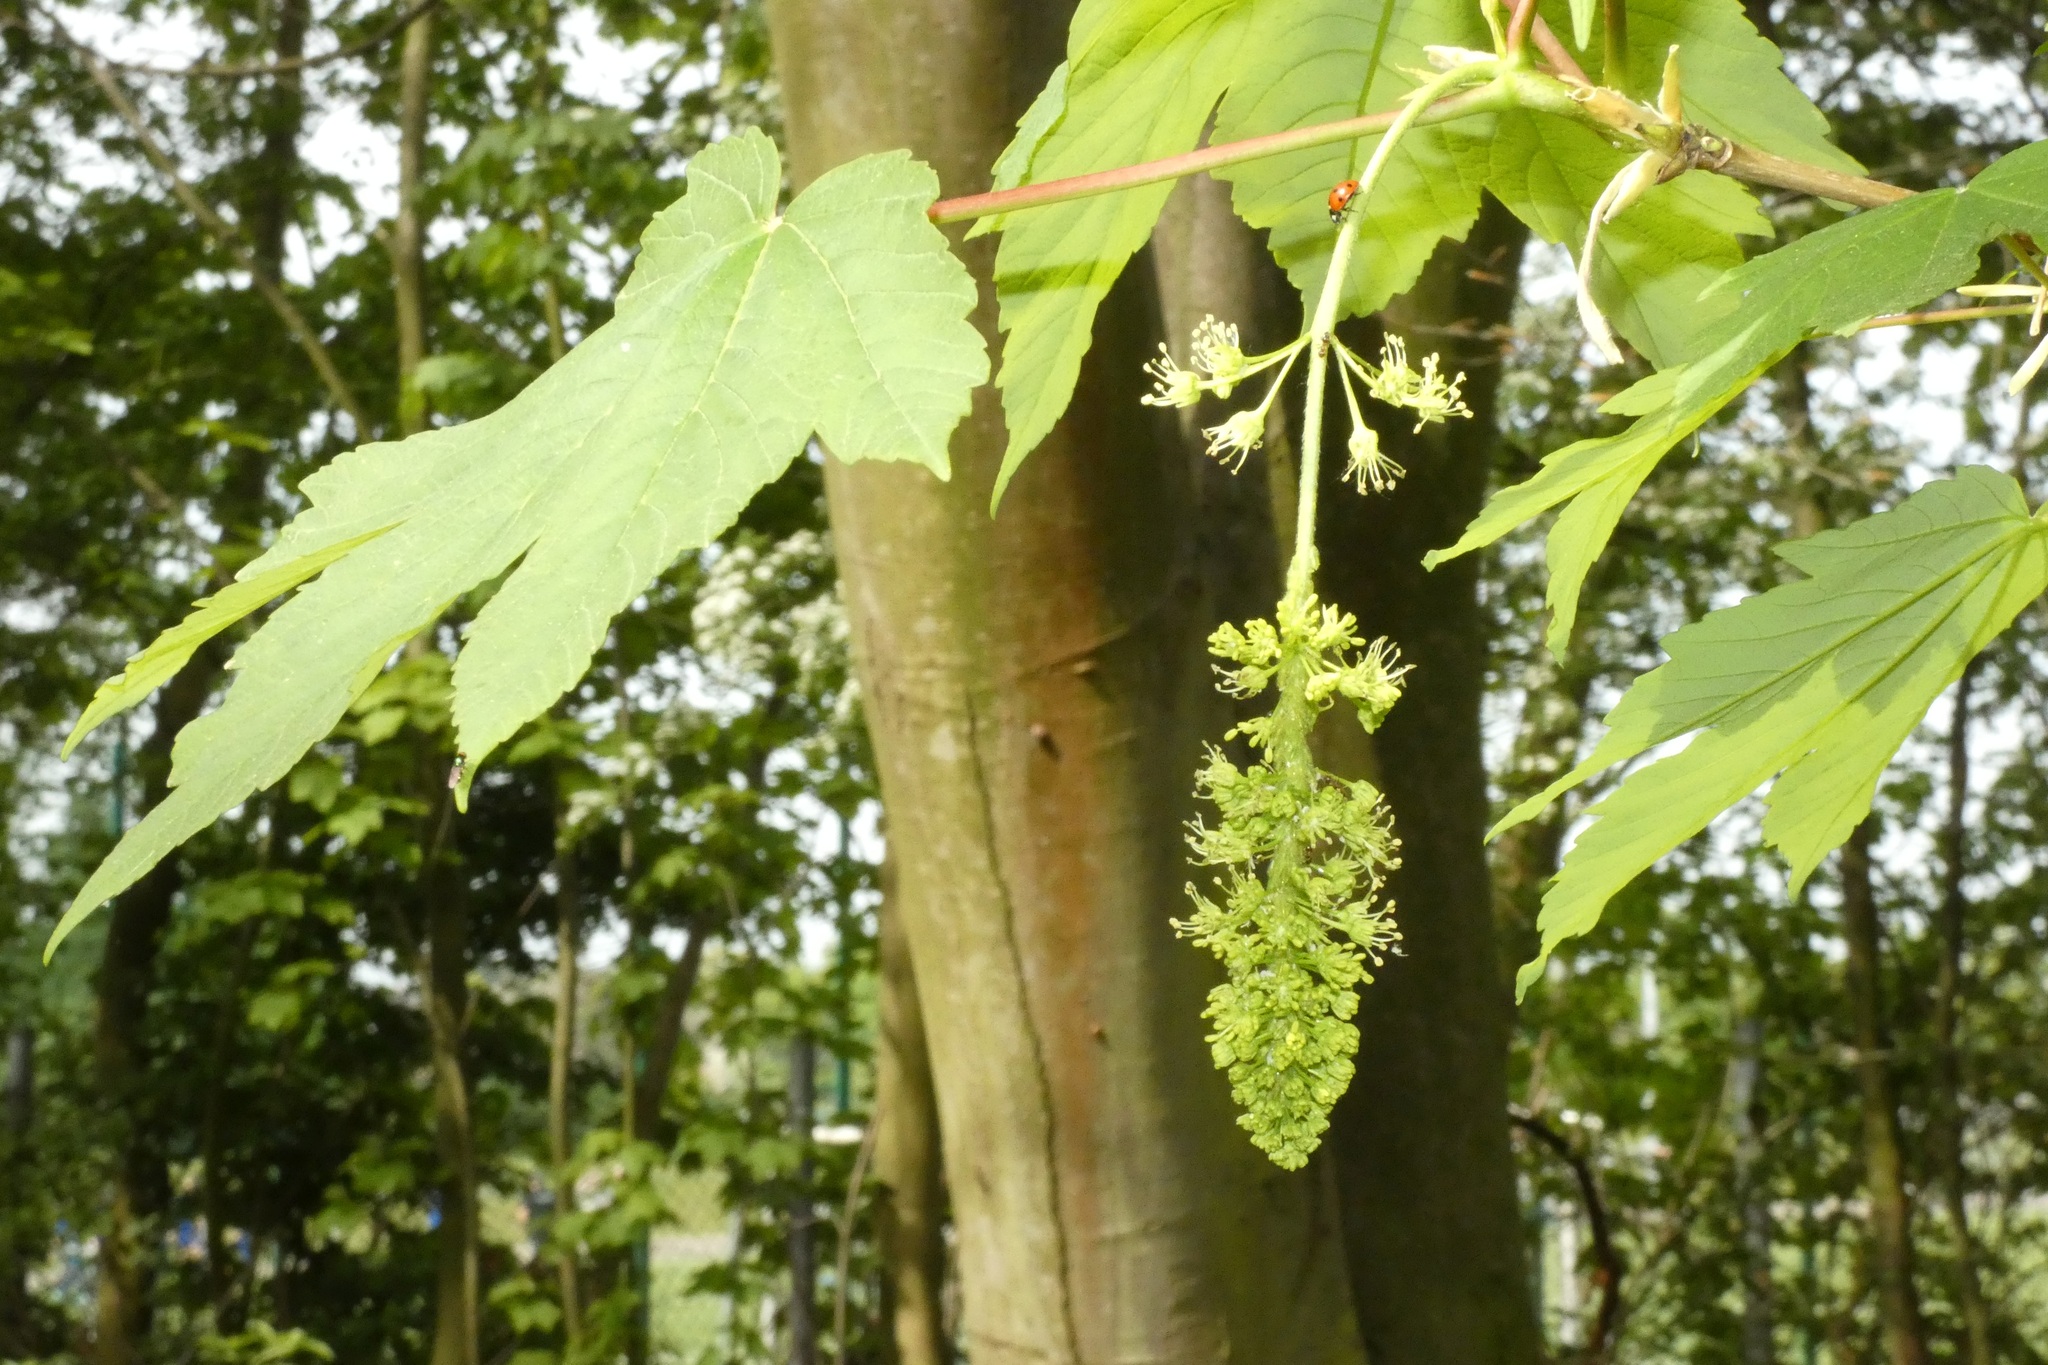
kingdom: Plantae
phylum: Tracheophyta
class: Magnoliopsida
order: Sapindales
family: Sapindaceae
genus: Acer
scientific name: Acer pseudoplatanus
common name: Sycamore
